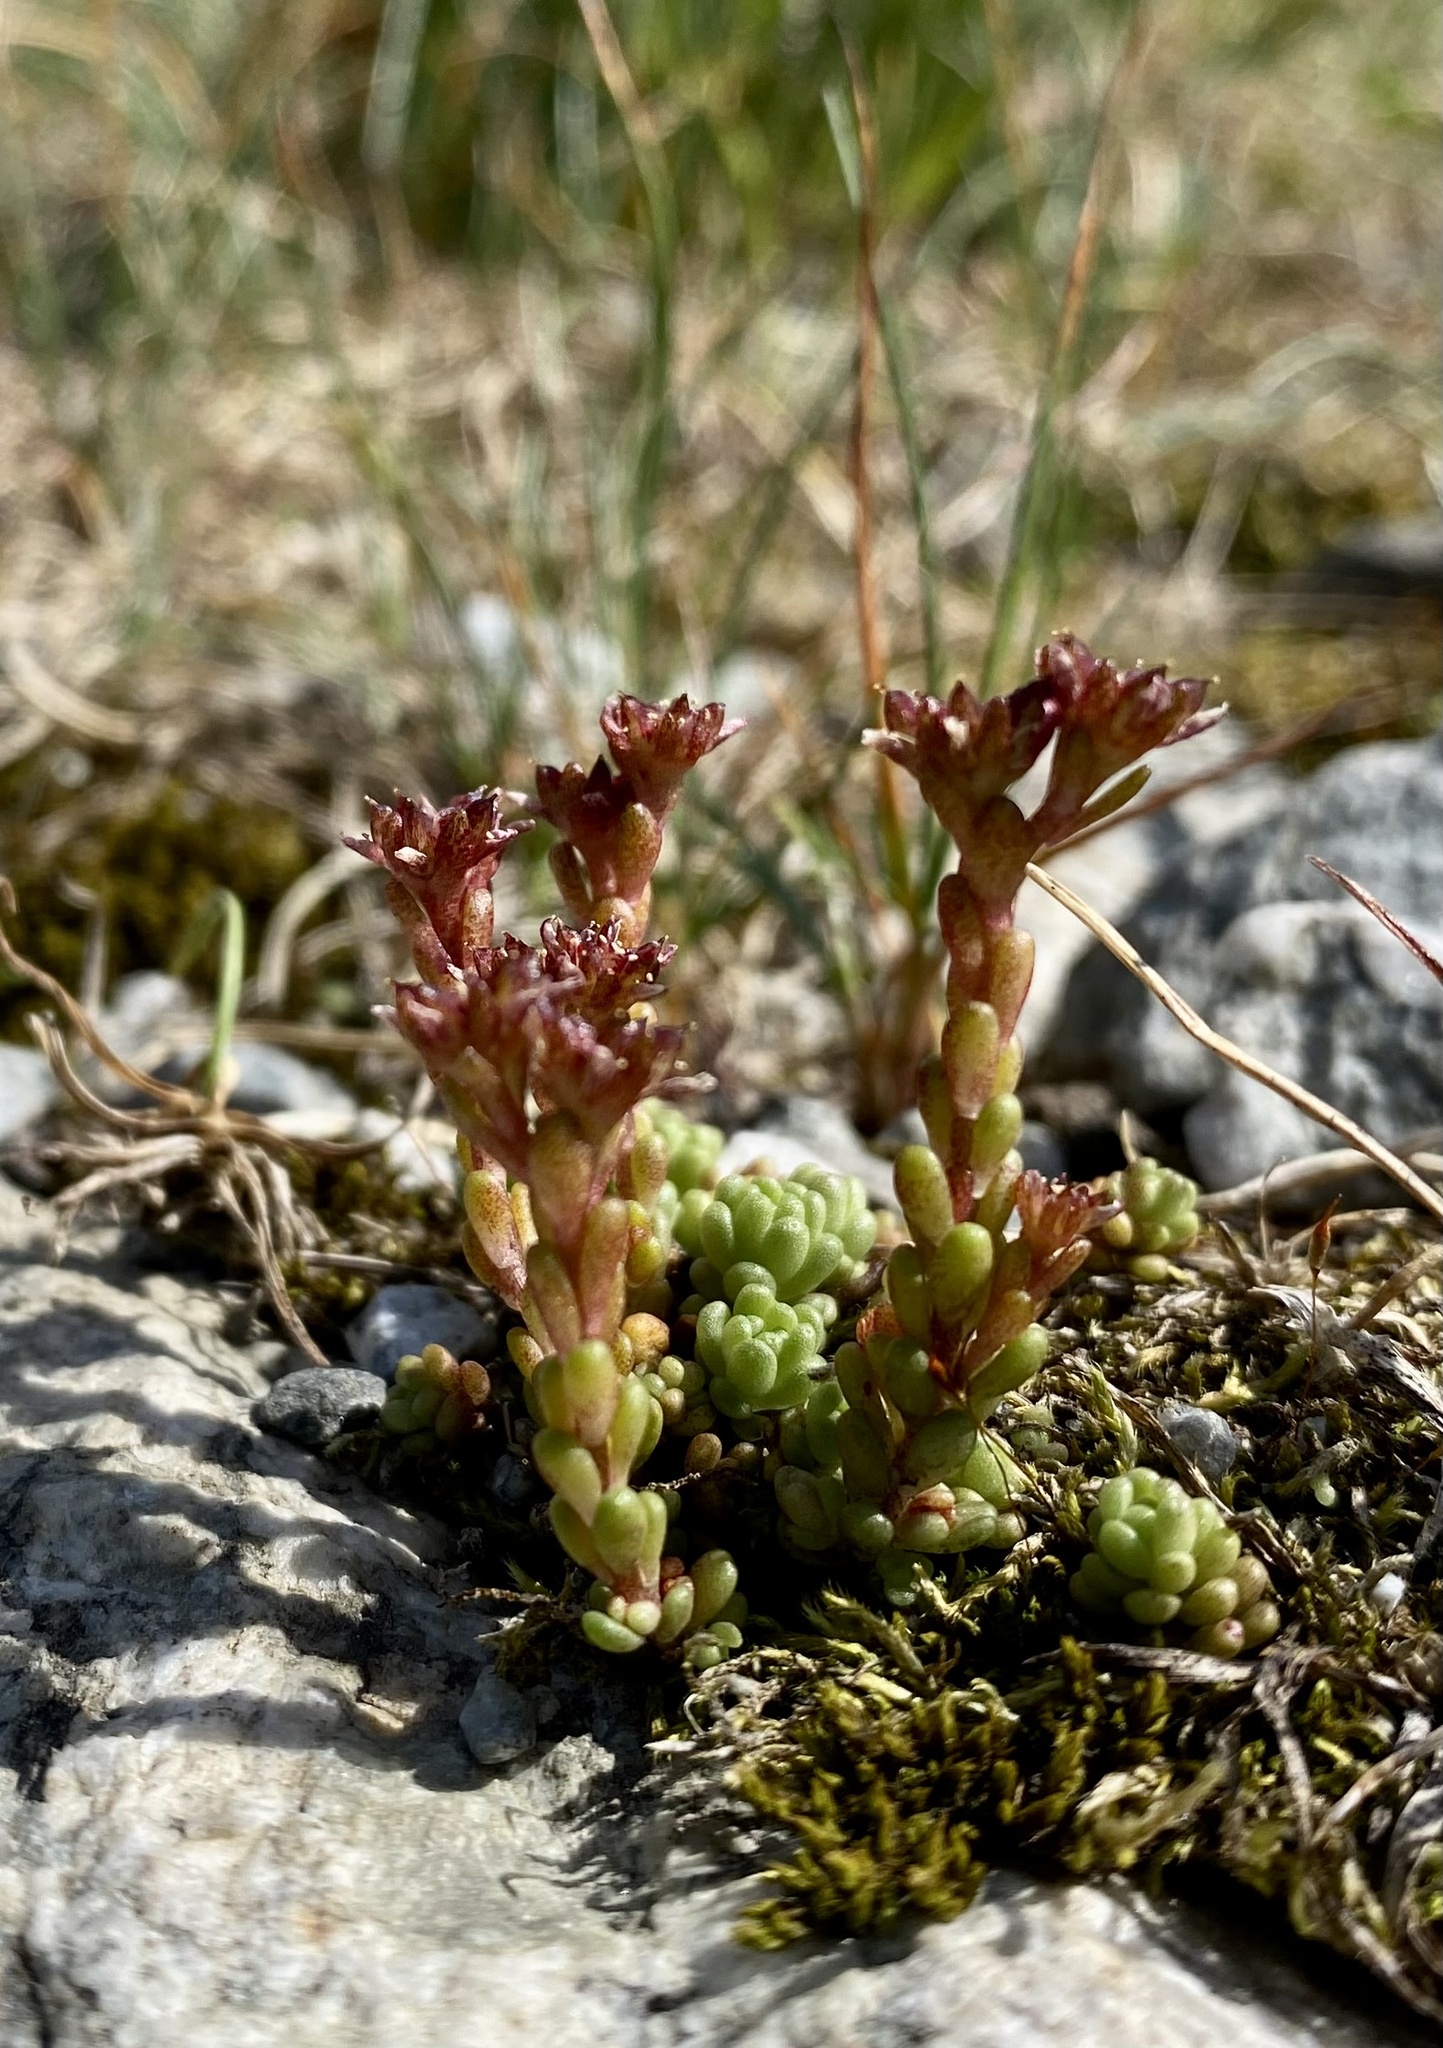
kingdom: Plantae
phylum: Tracheophyta
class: Magnoliopsida
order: Saxifragales
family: Crassulaceae
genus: Sedum
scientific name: Sedum alpestre
